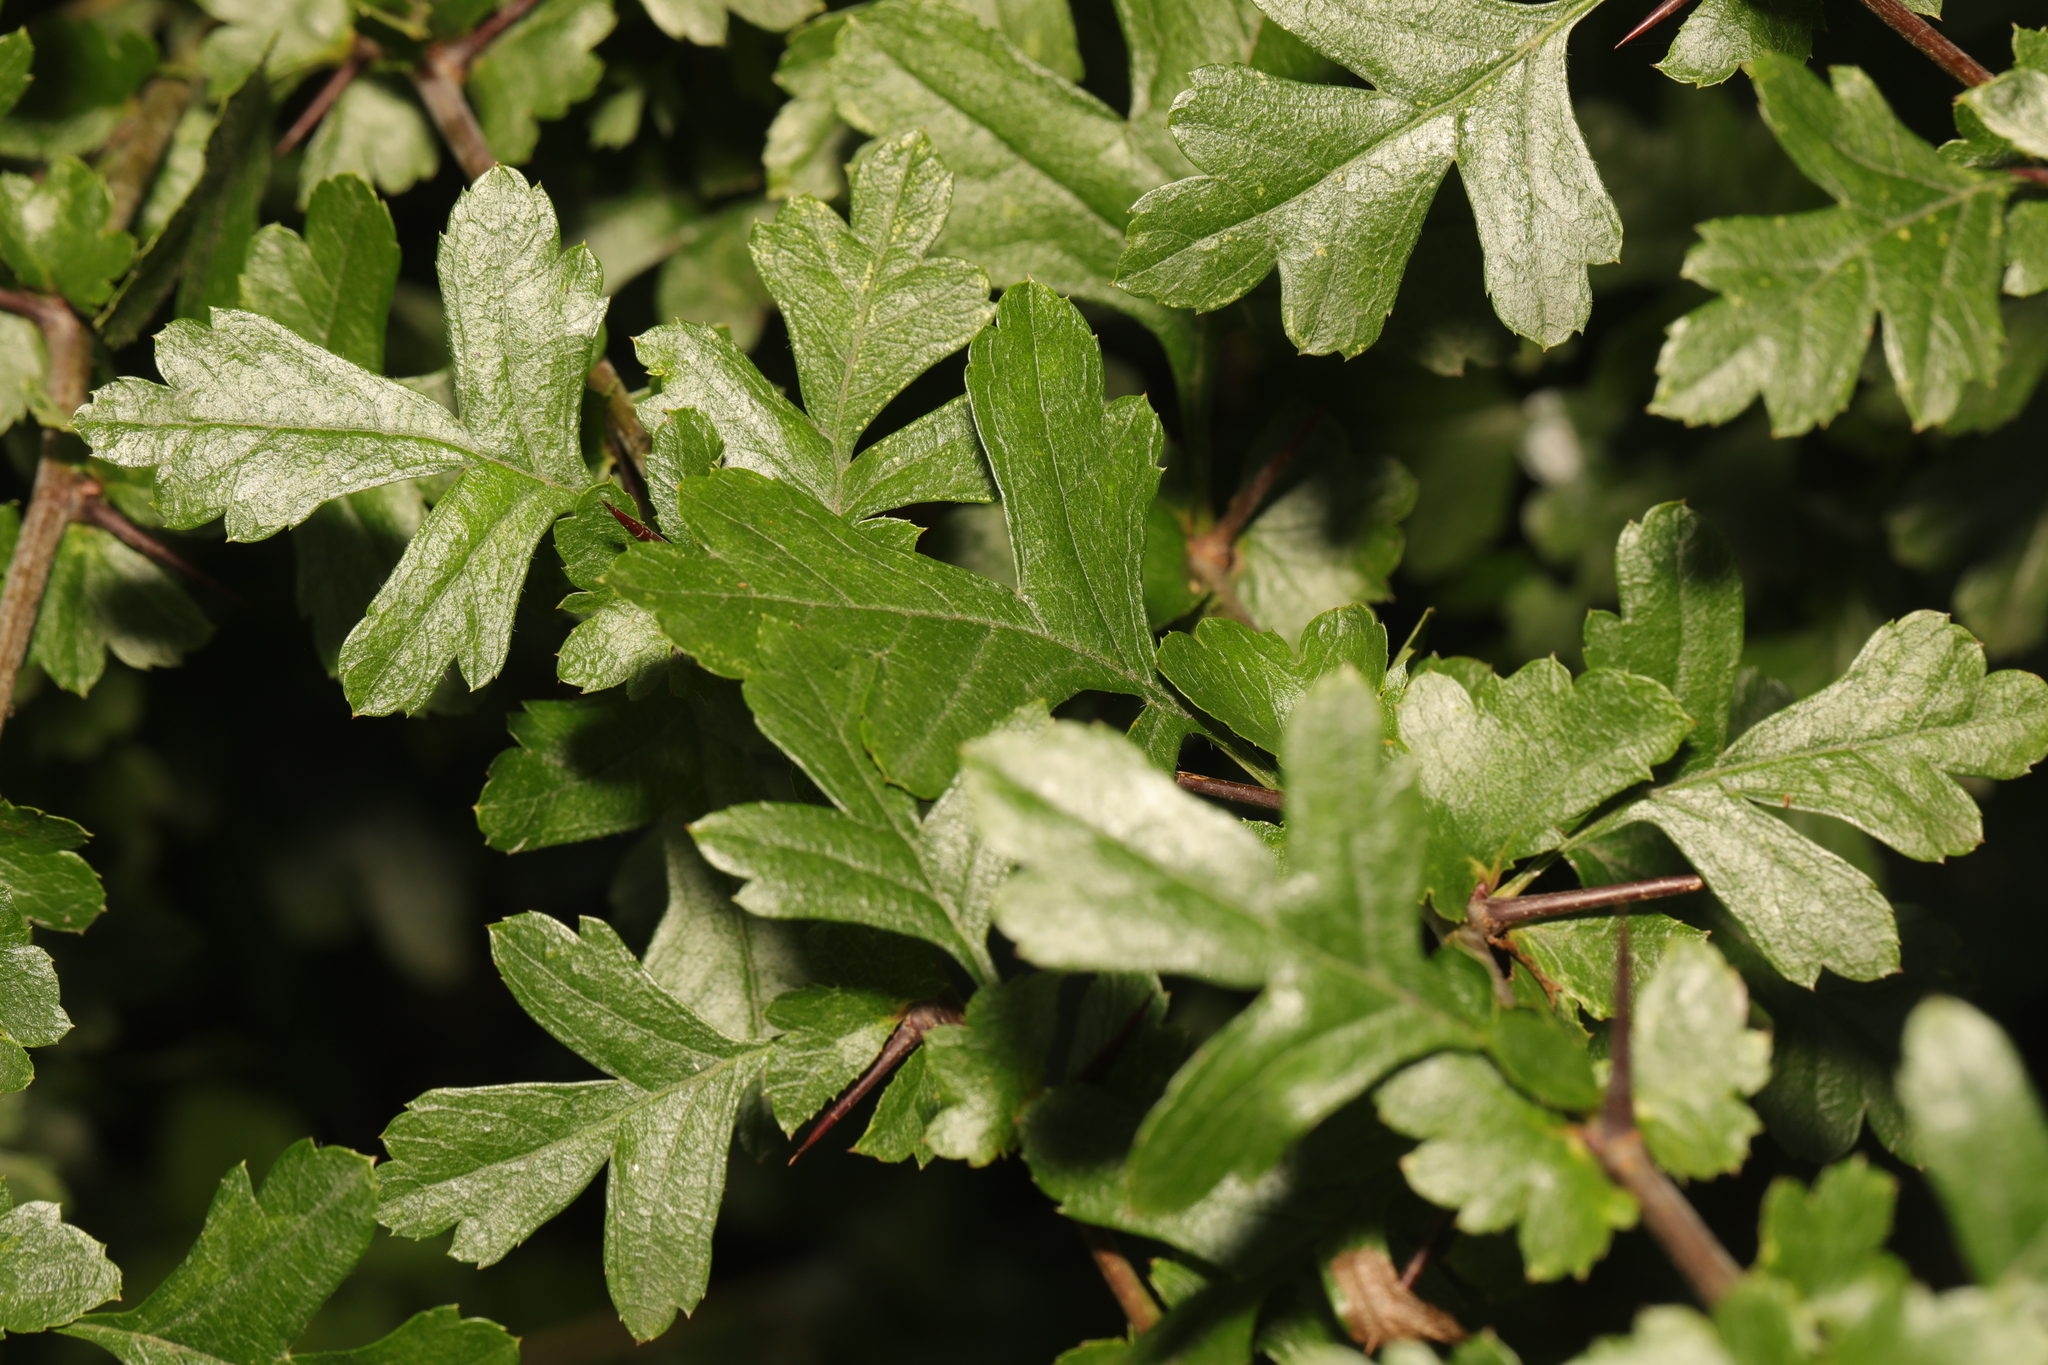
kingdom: Plantae
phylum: Tracheophyta
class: Magnoliopsida
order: Rosales
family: Rosaceae
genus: Crataegus
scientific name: Crataegus monogyna
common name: Hawthorn
